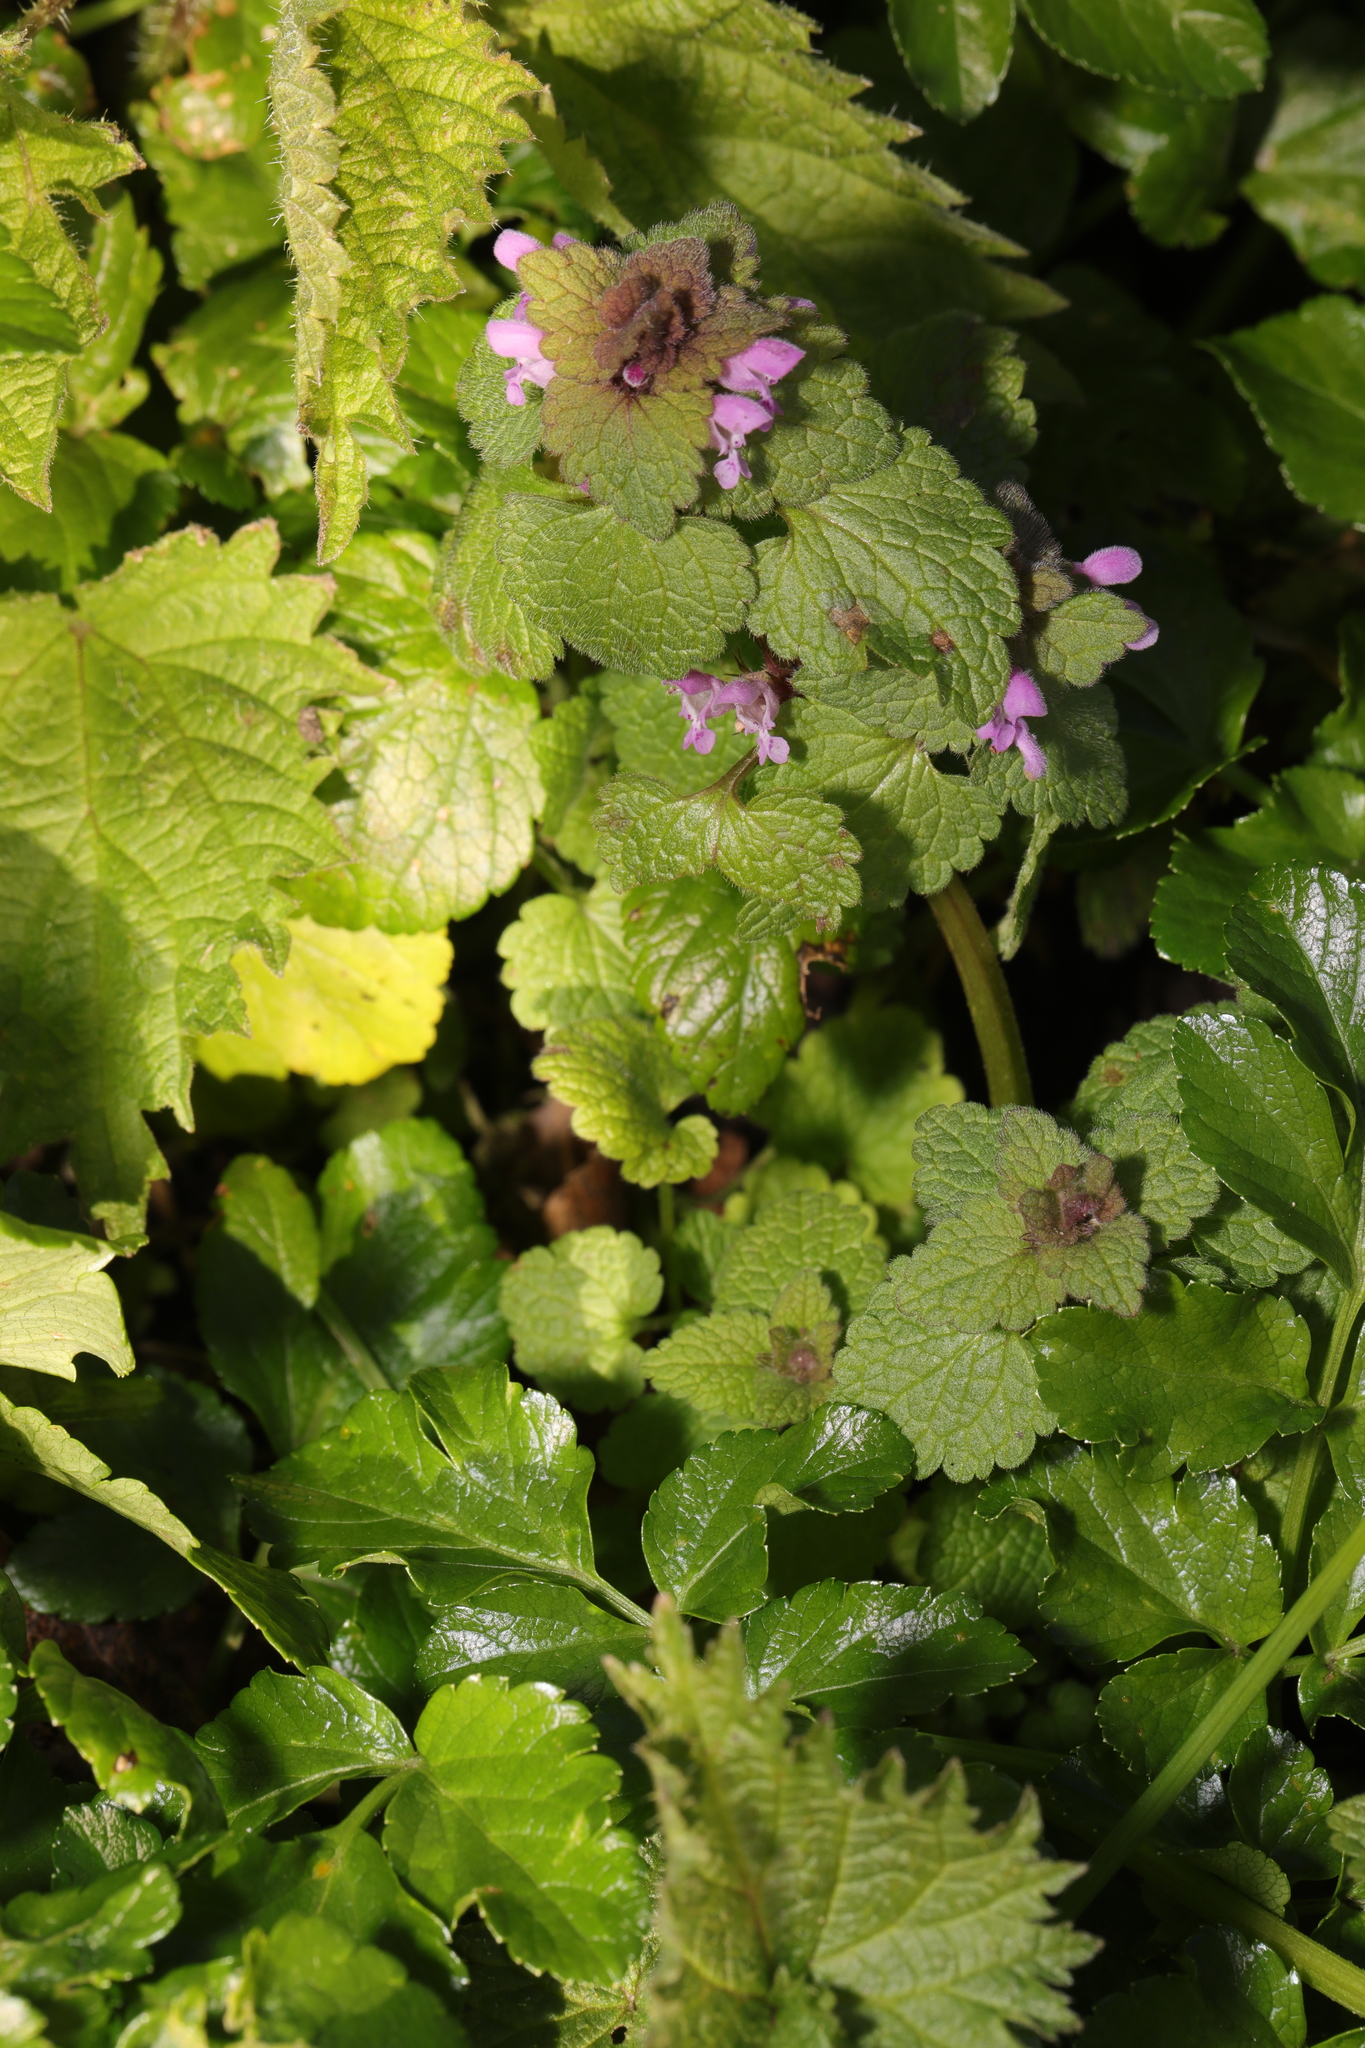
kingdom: Plantae
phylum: Tracheophyta
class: Magnoliopsida
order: Lamiales
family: Lamiaceae
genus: Lamium
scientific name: Lamium purpureum
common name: Red dead-nettle
